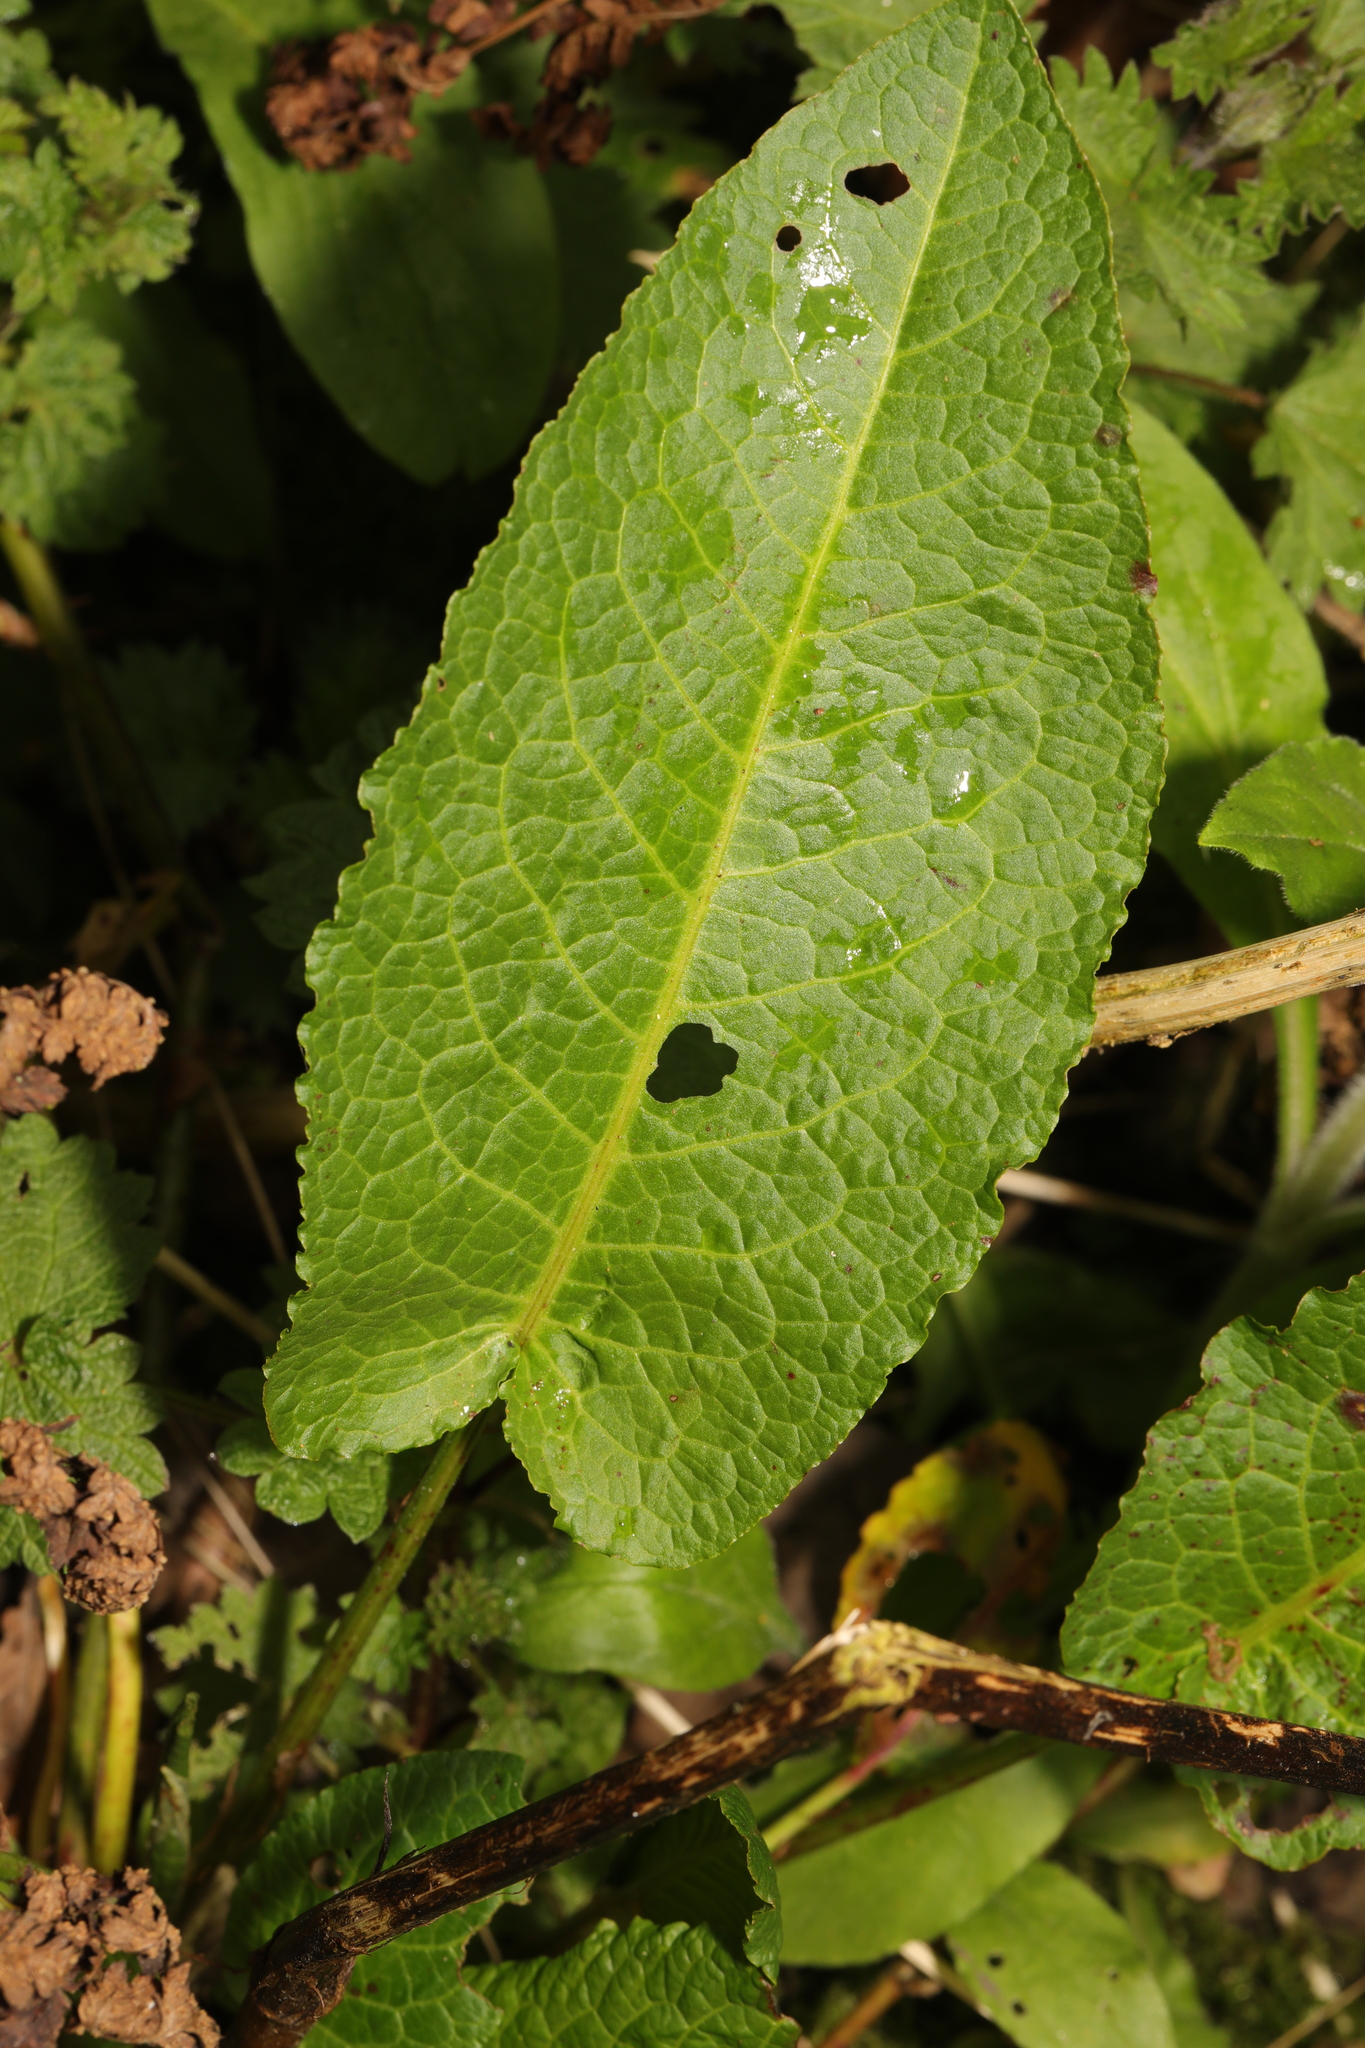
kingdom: Plantae
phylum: Tracheophyta
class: Magnoliopsida
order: Caryophyllales
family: Polygonaceae
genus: Rumex
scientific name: Rumex obtusifolius
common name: Bitter dock
